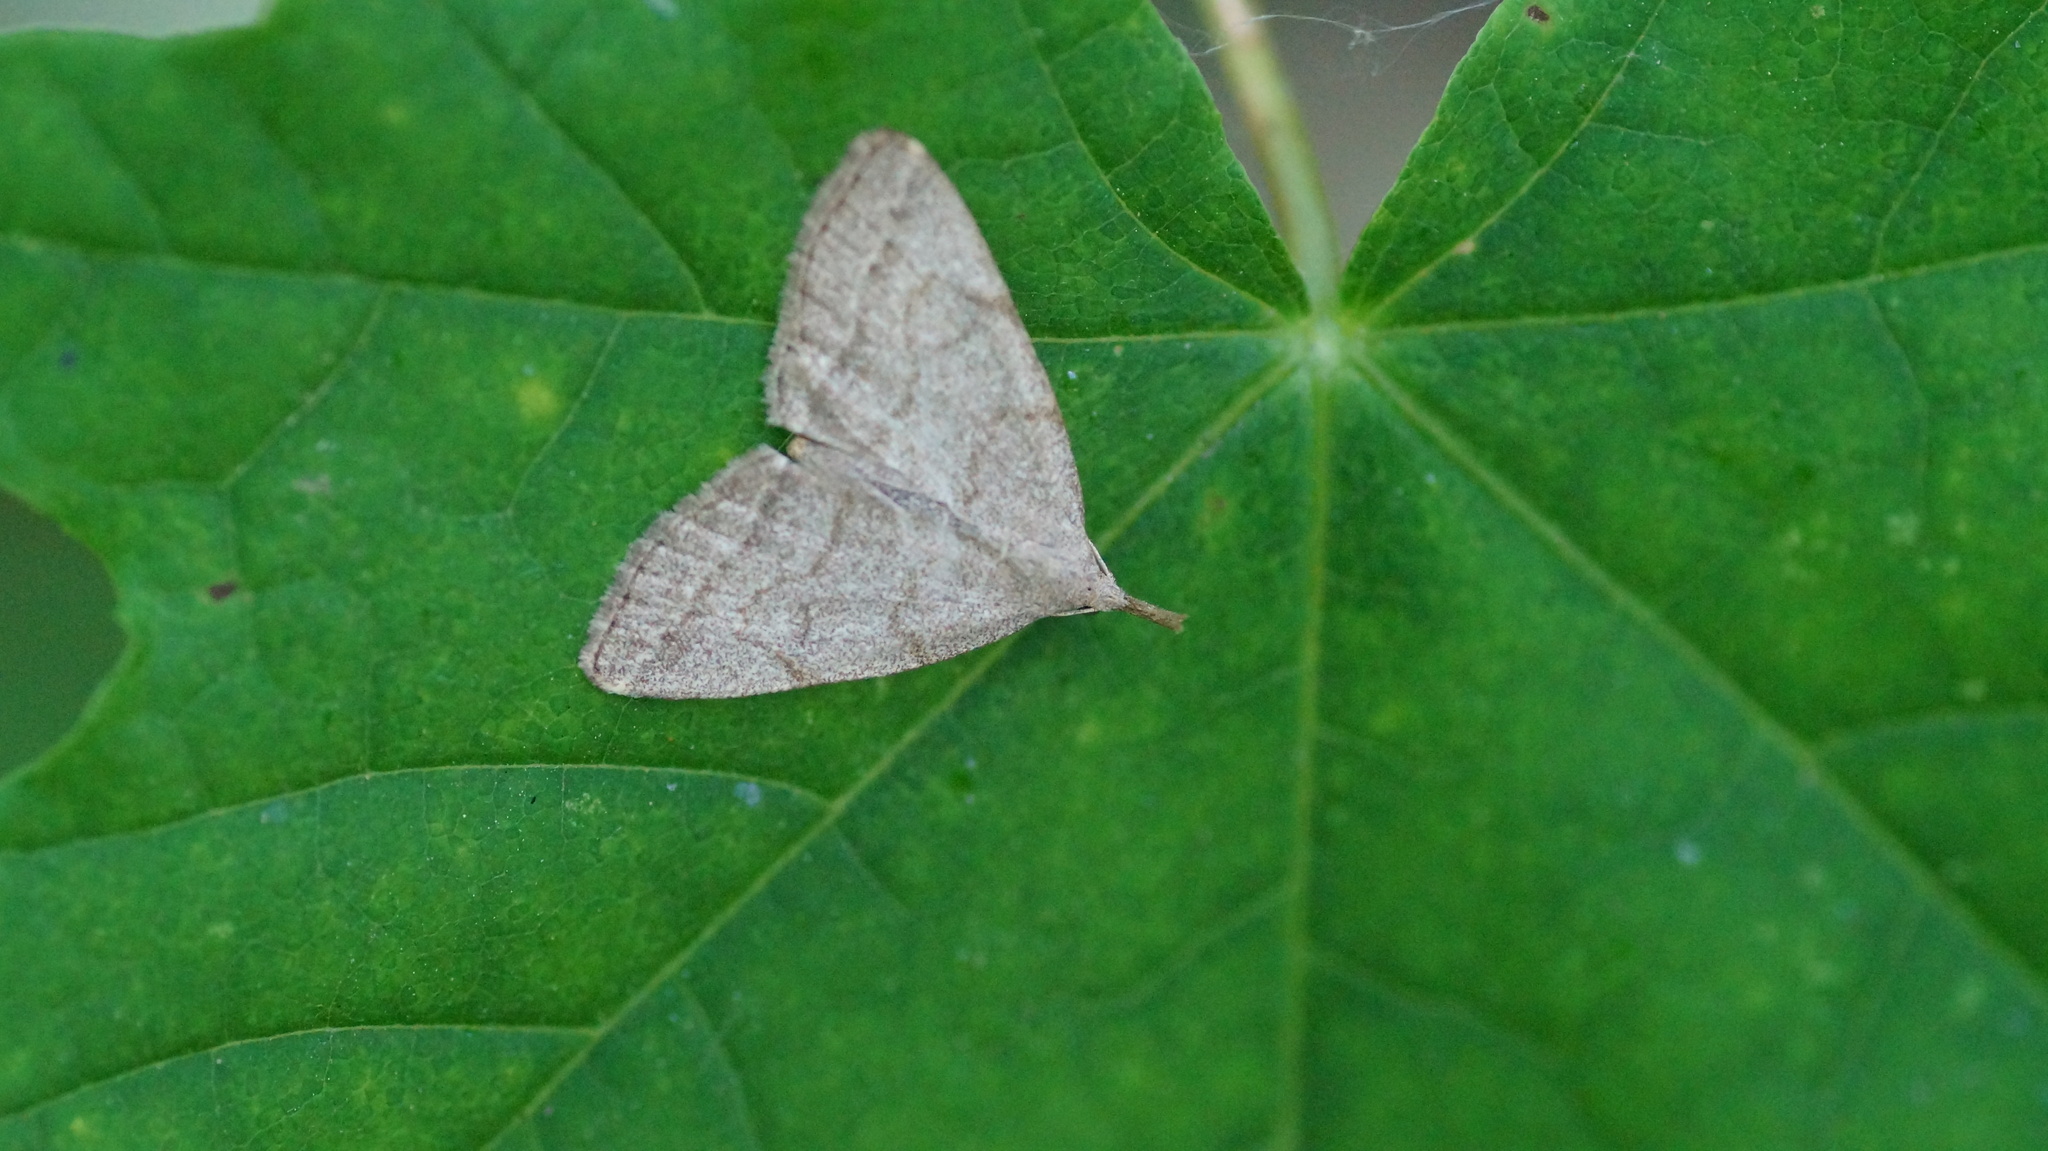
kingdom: Animalia
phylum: Arthropoda
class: Insecta
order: Lepidoptera
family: Erebidae
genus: Pechipogo
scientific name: Pechipogo strigilata
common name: Common fan-foot
